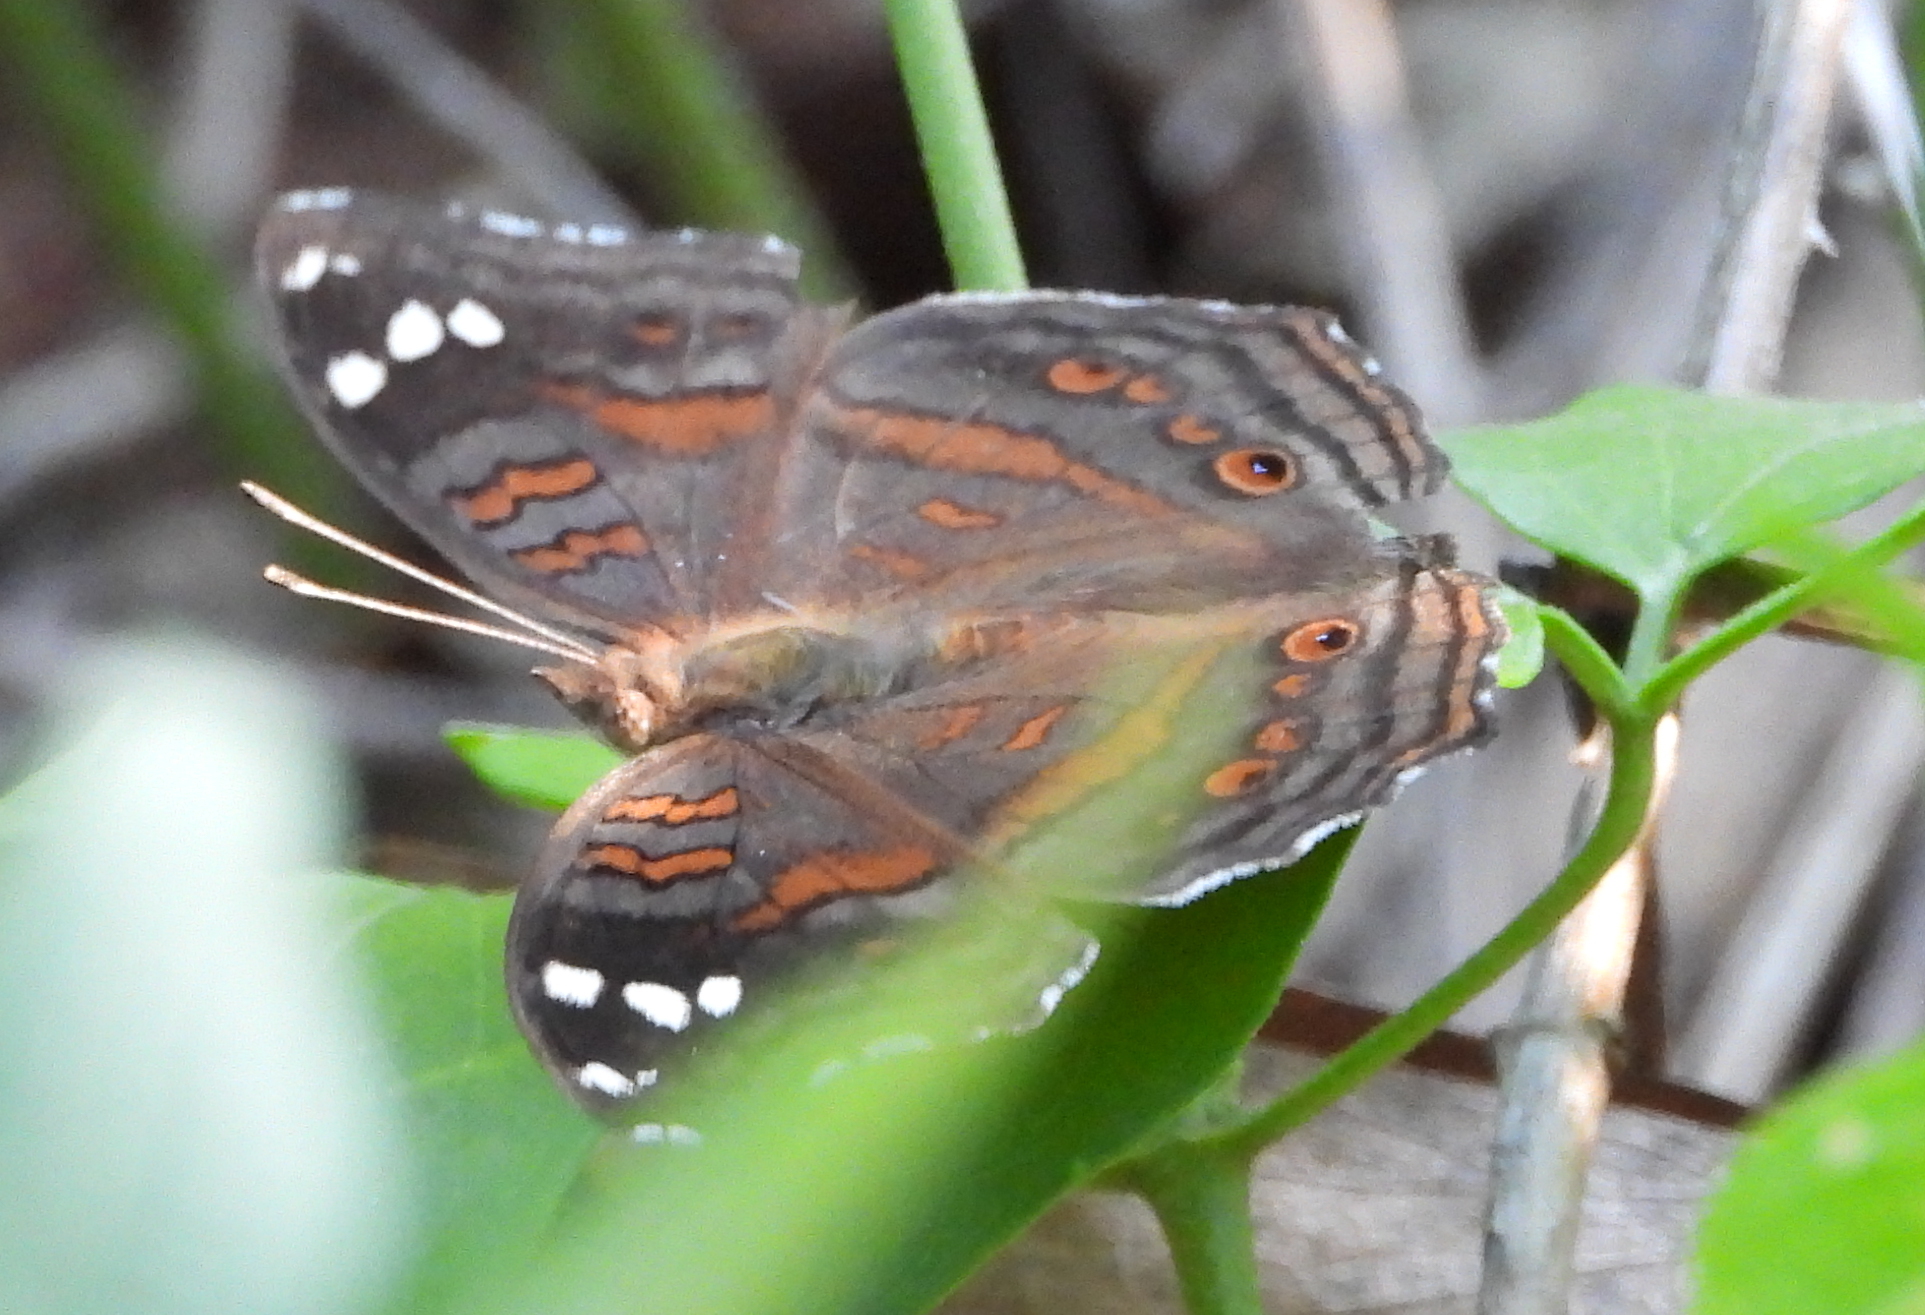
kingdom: Animalia
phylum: Arthropoda
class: Insecta
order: Lepidoptera
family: Nymphalidae
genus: Junonia
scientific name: Junonia natalica
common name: Brown pansy
